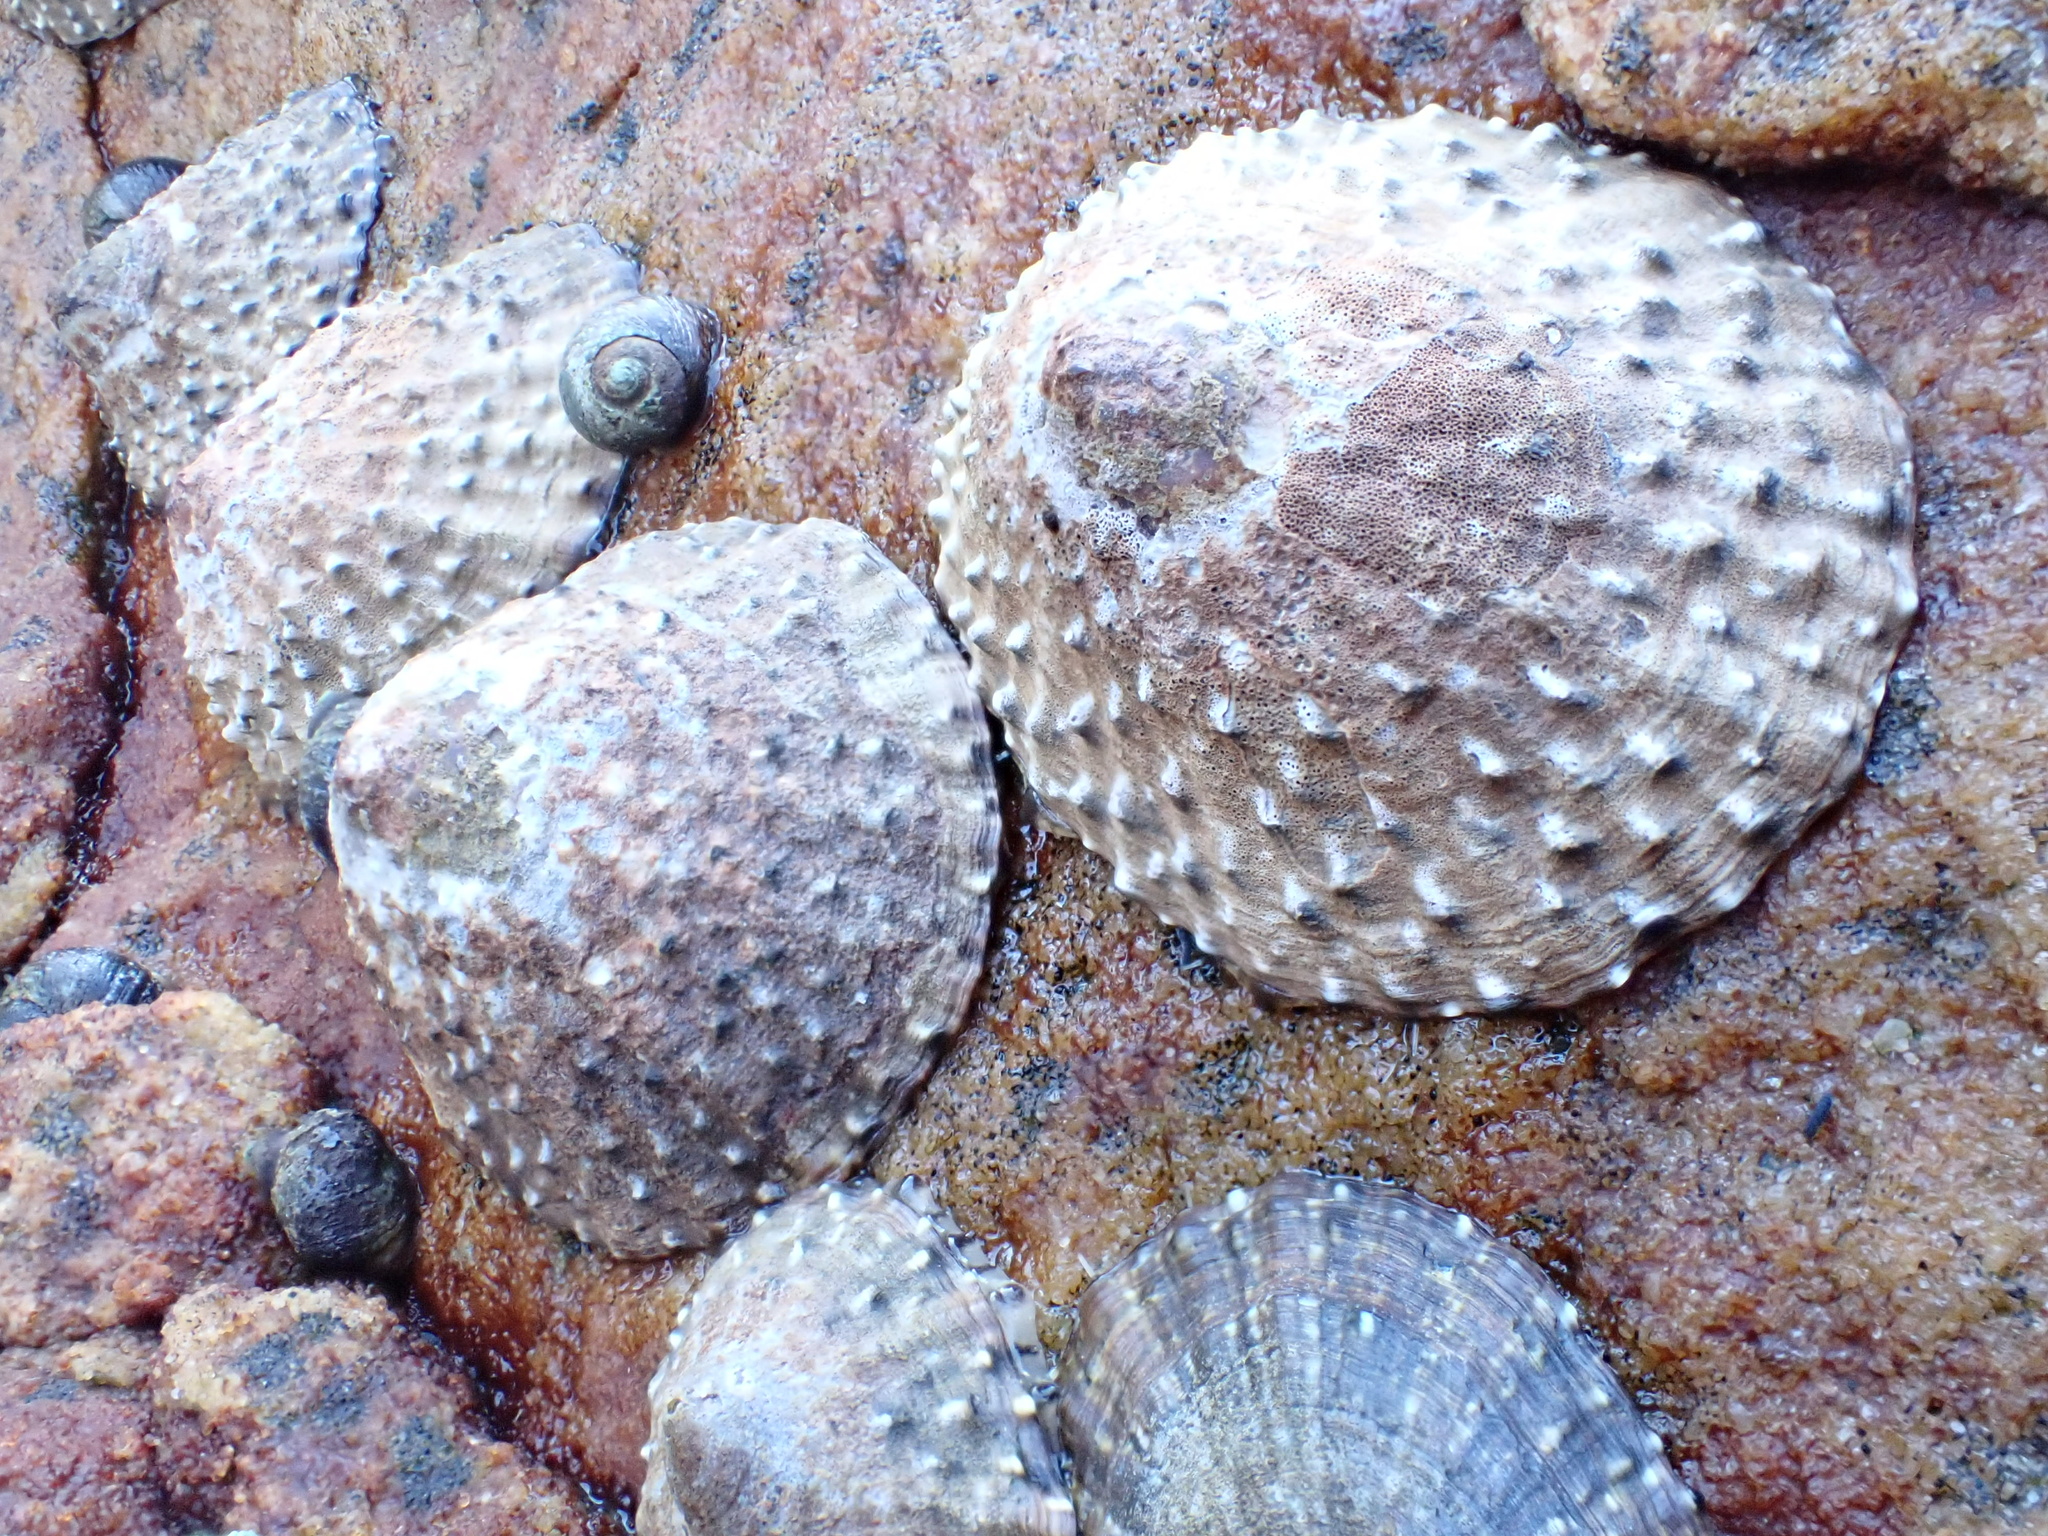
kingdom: Animalia
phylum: Mollusca
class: Gastropoda
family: Patellidae
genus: Scutellastra
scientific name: Scutellastra granularis
